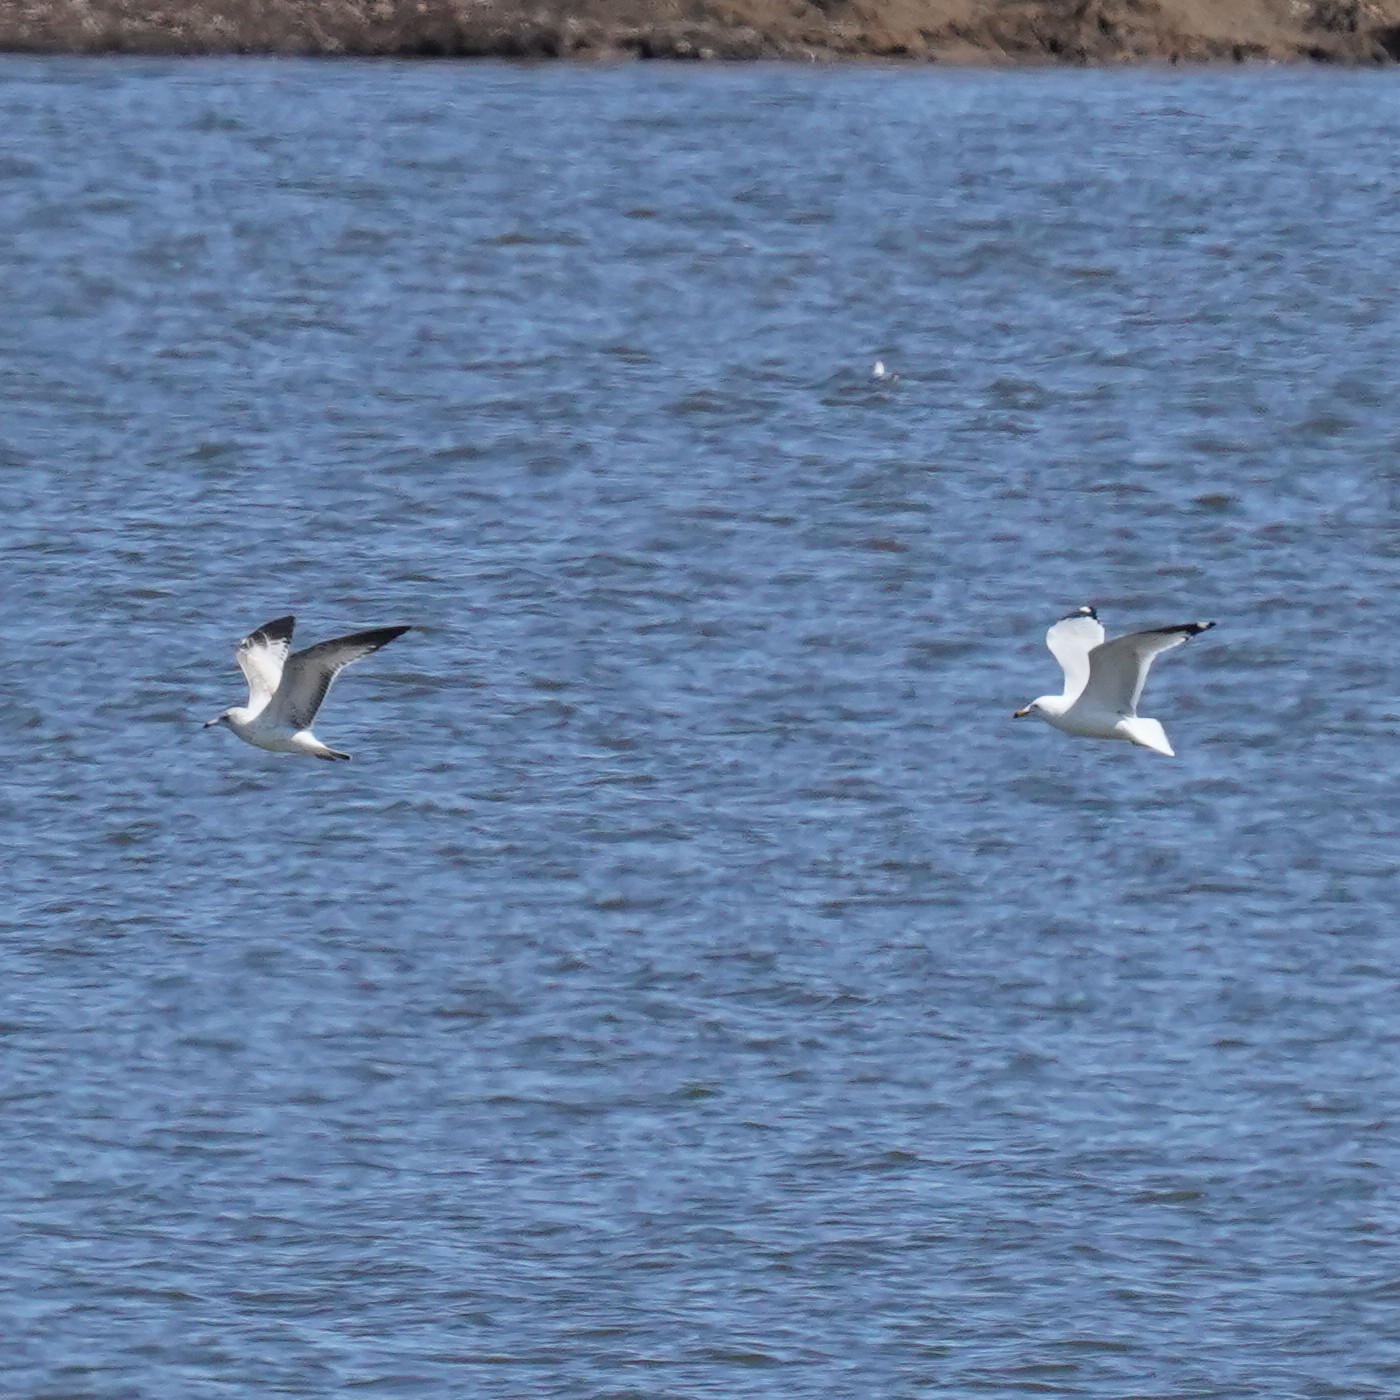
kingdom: Animalia
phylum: Chordata
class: Aves
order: Charadriiformes
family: Laridae
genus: Larus
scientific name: Larus delawarensis
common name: Ring-billed gull
